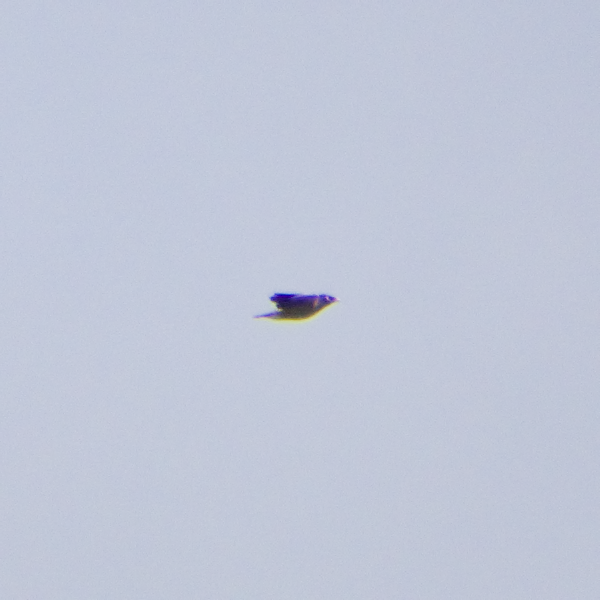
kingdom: Animalia
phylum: Chordata
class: Aves
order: Passeriformes
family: Sturnidae
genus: Acridotheres
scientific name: Acridotheres tristis
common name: Common myna
